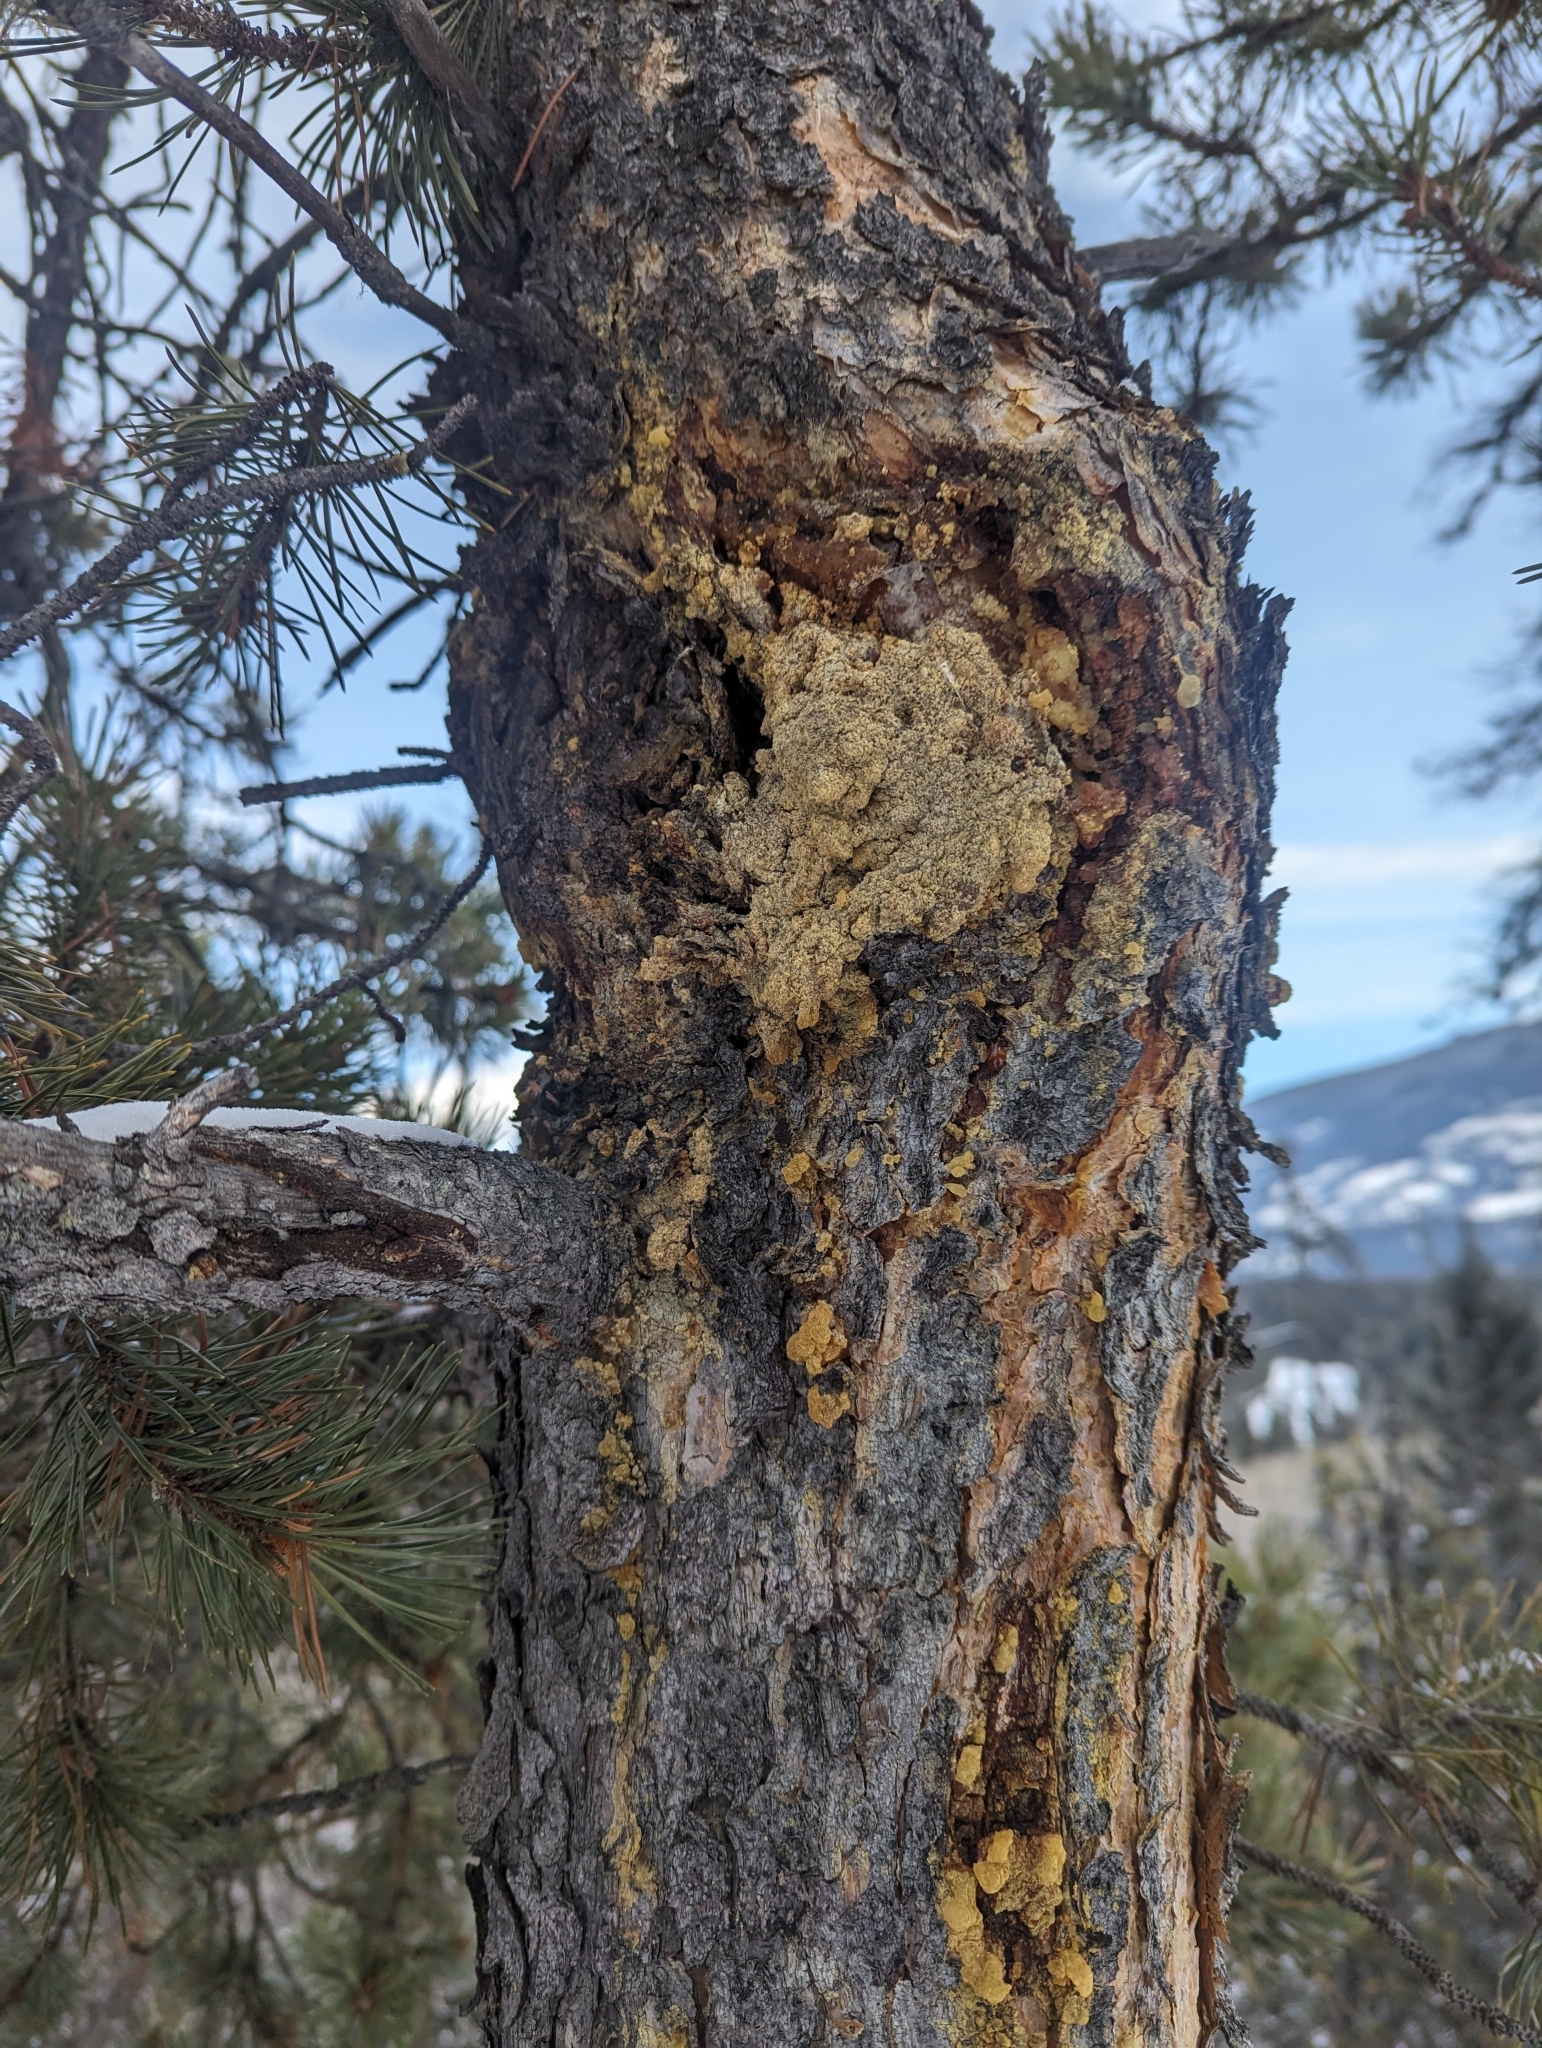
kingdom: Plantae
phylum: Tracheophyta
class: Pinopsida
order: Pinales
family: Pinaceae
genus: Pinus
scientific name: Pinus contorta
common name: Lodgepole pine
